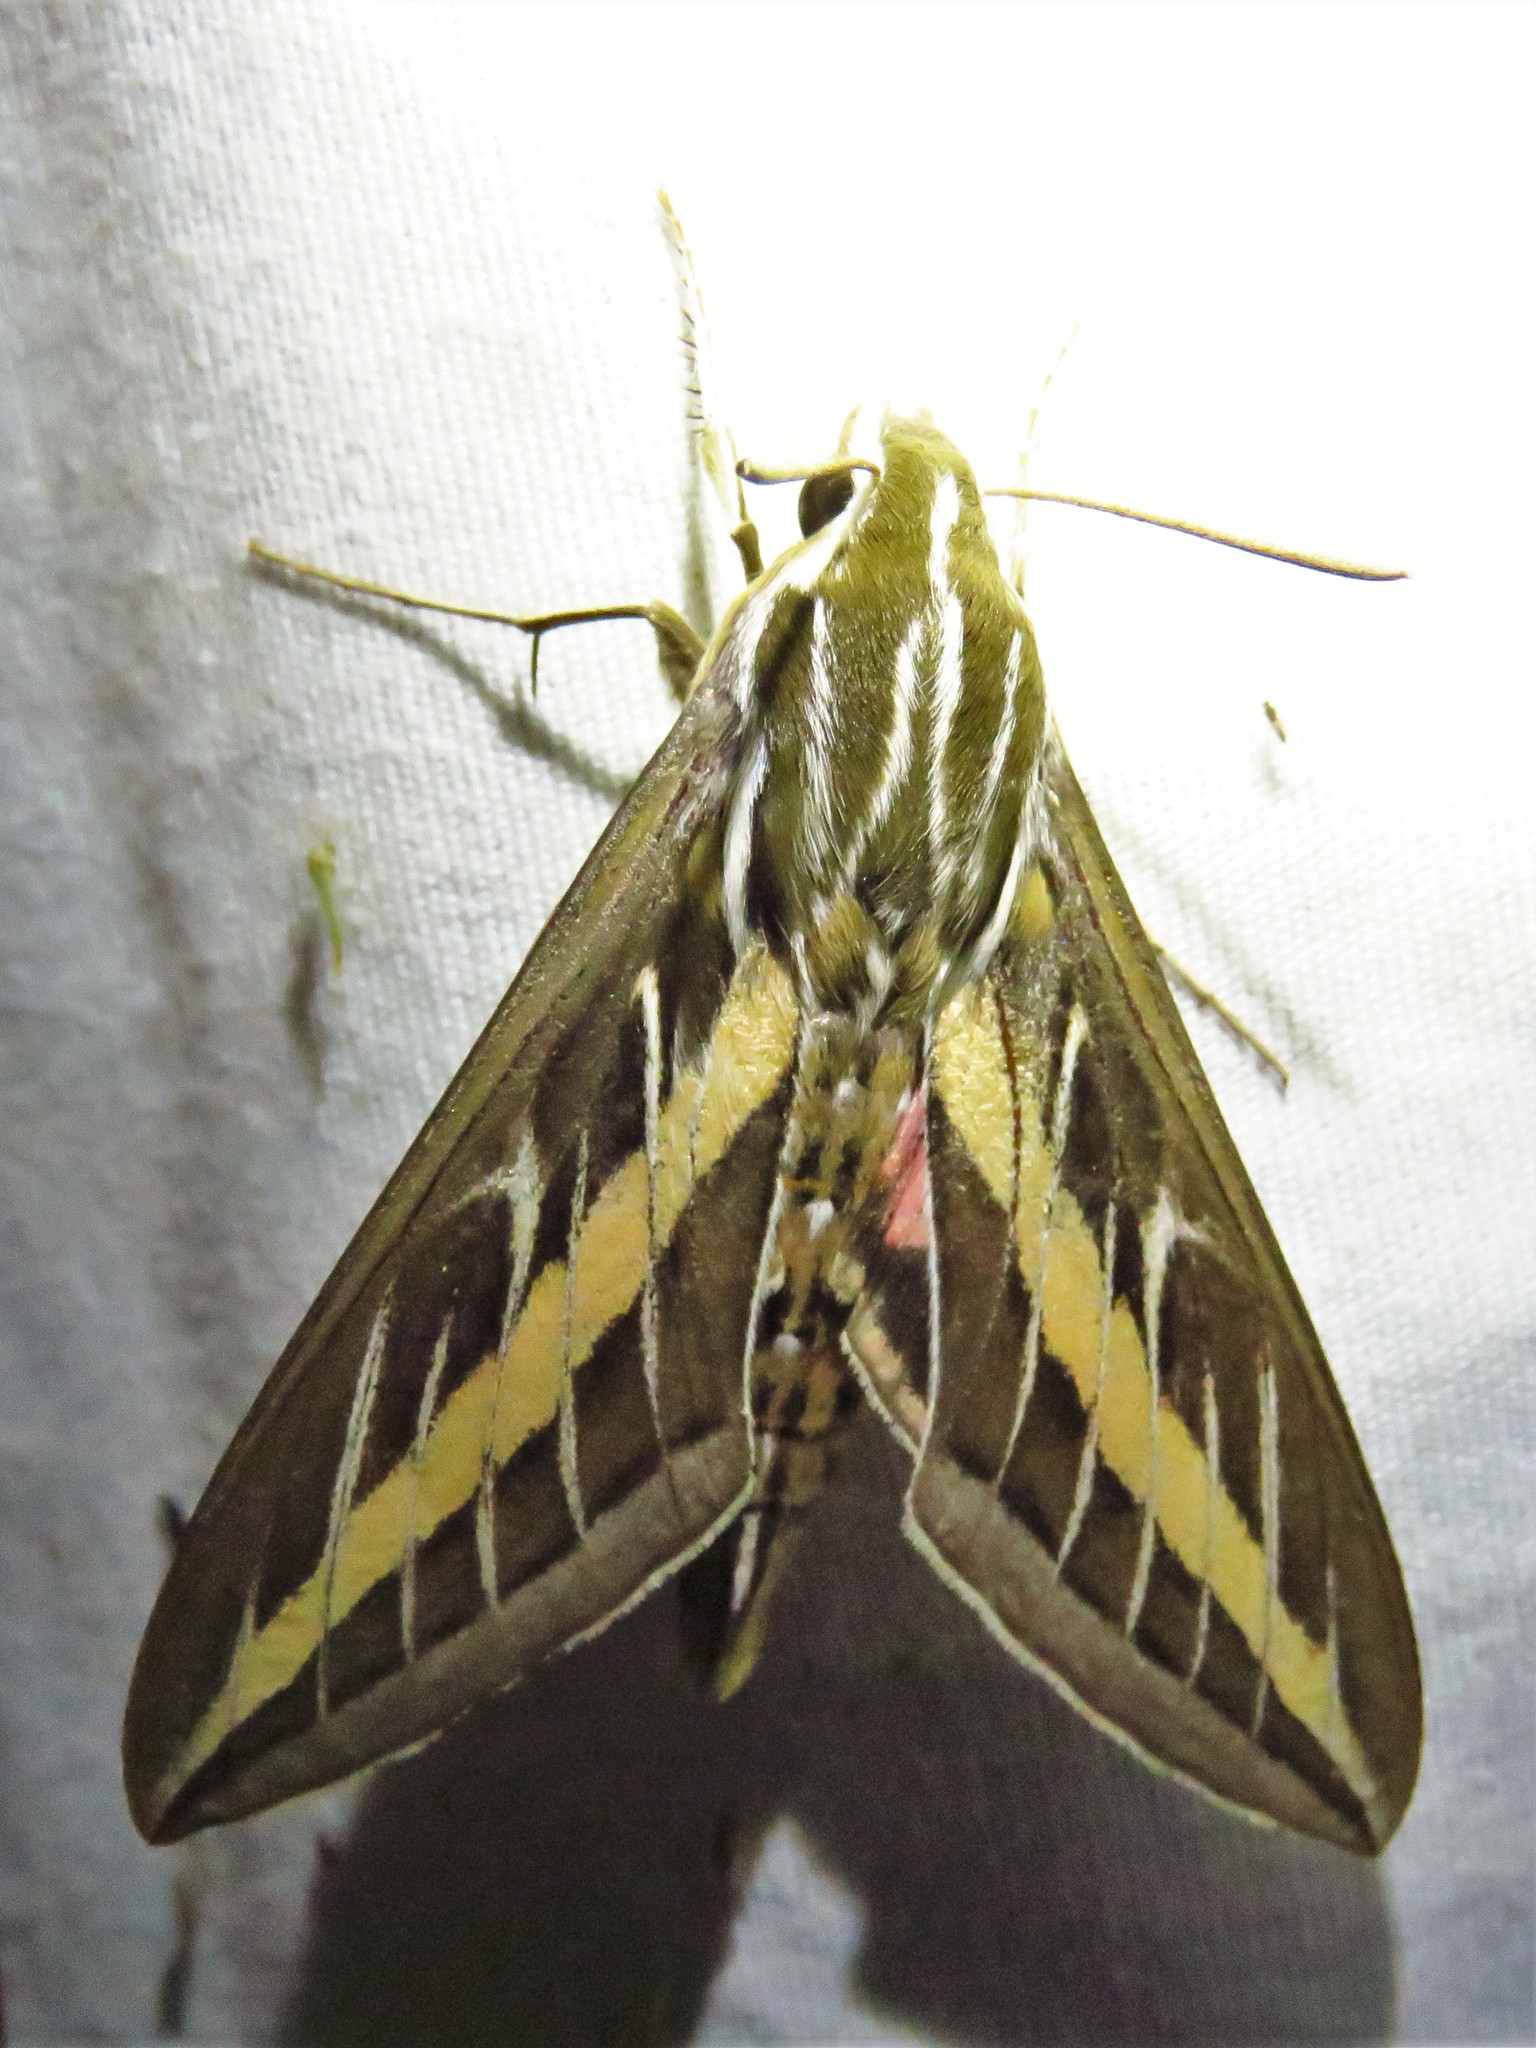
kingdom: Animalia
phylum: Arthropoda
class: Insecta
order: Lepidoptera
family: Sphingidae
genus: Hyles
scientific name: Hyles lineata
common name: White-lined sphinx
